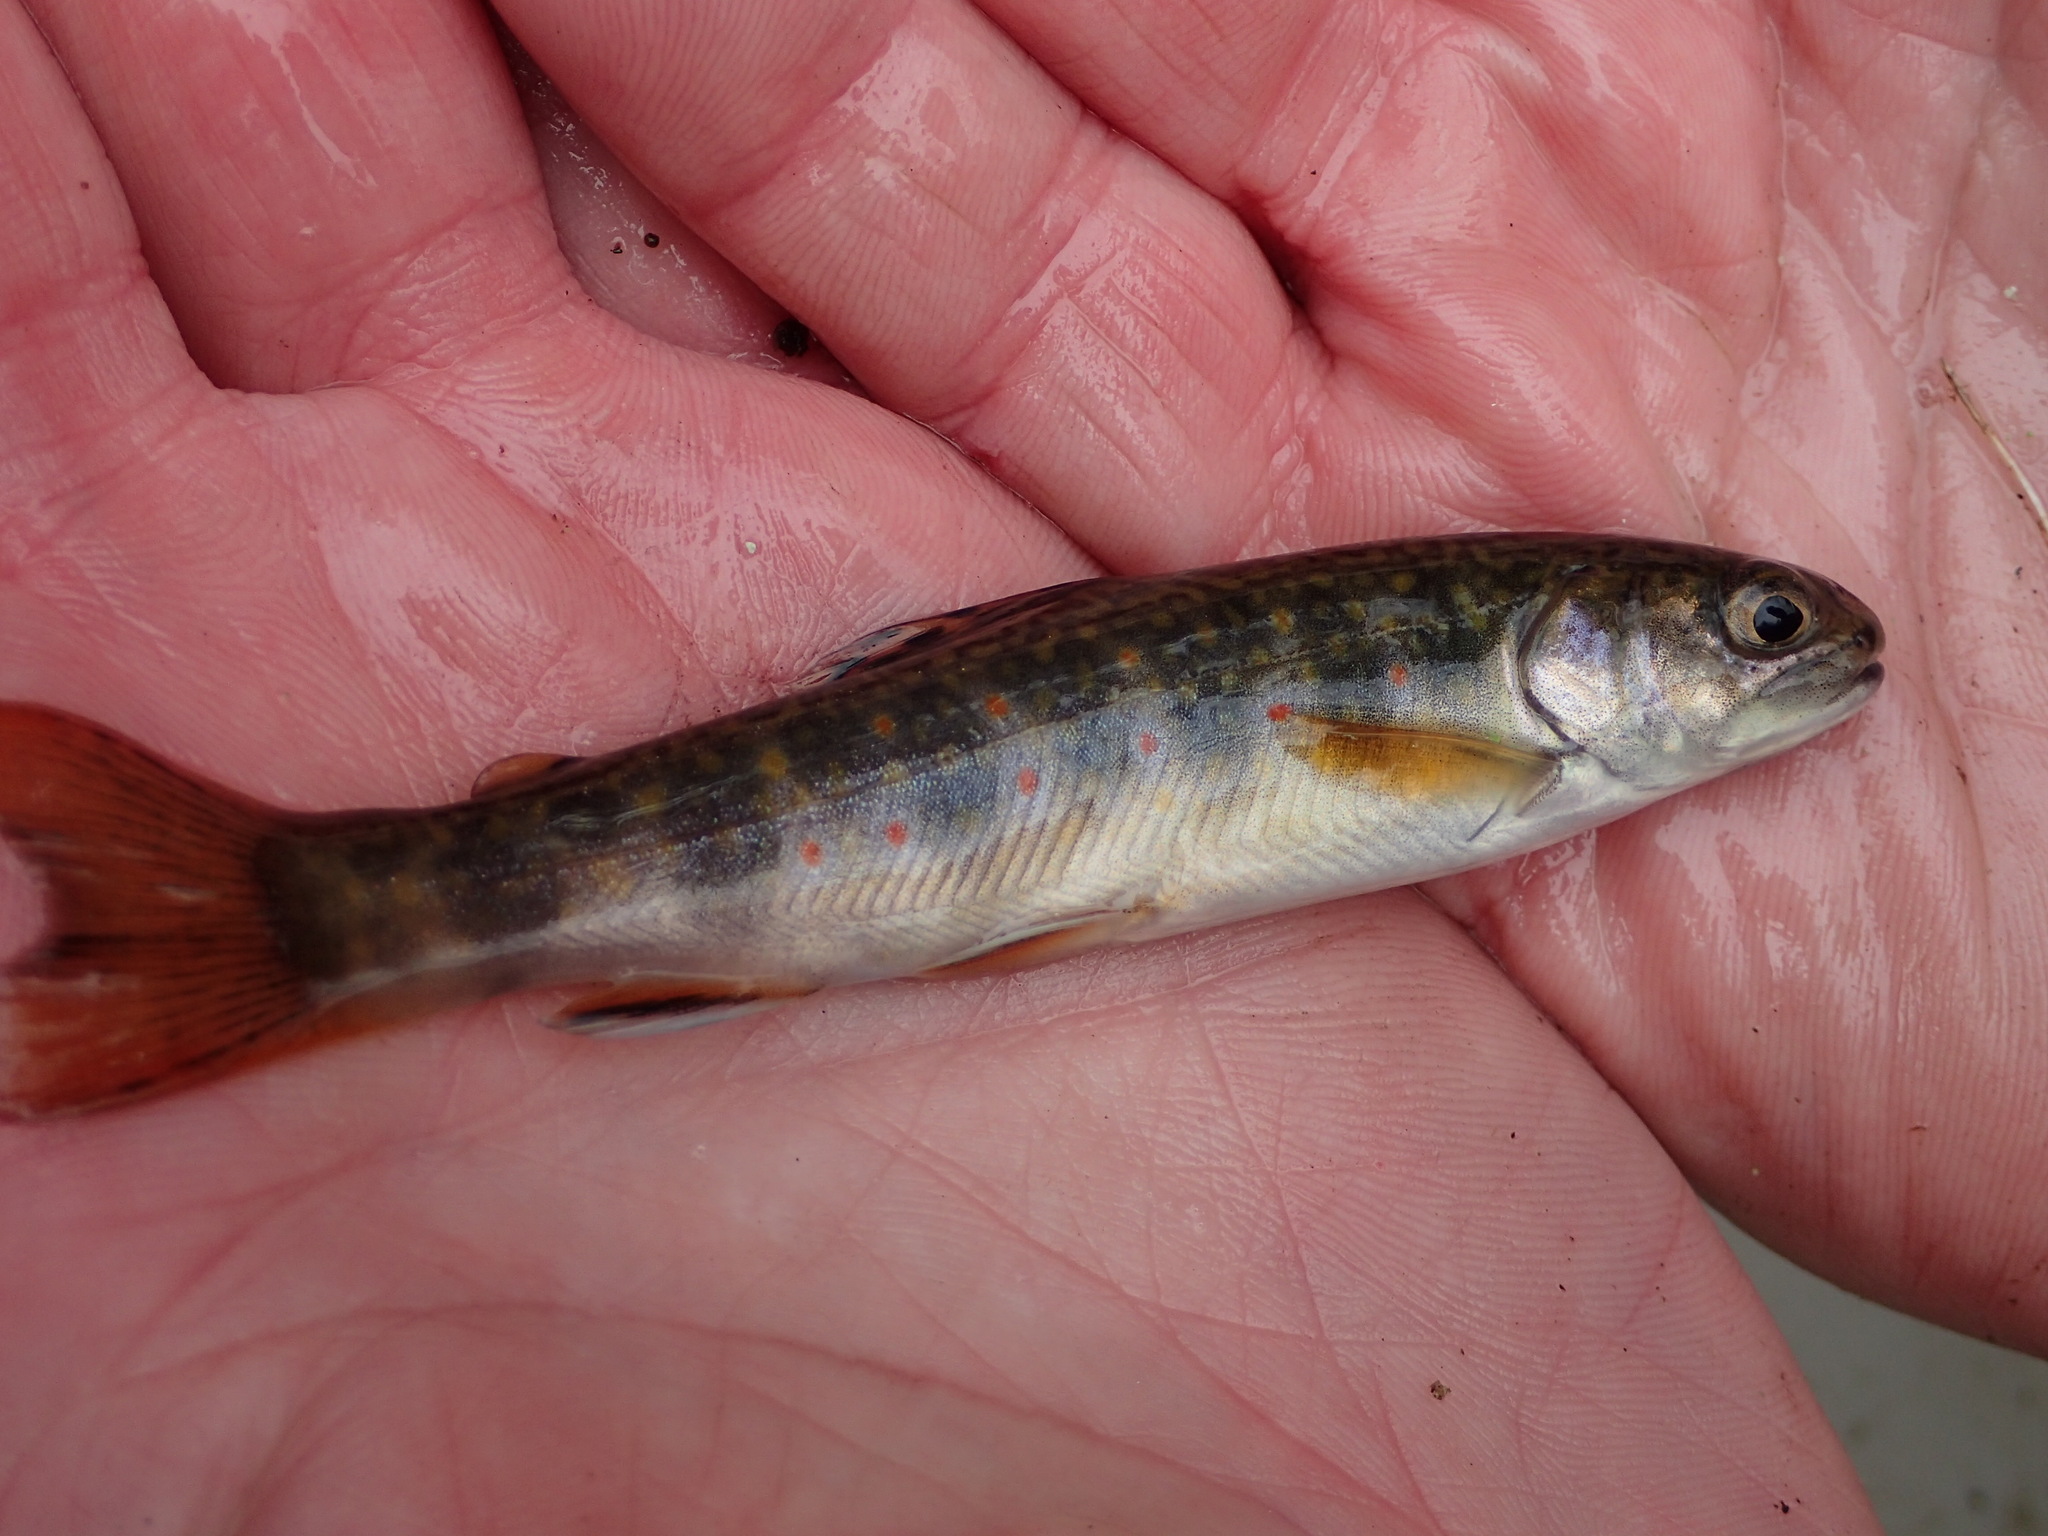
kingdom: Animalia
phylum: Chordata
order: Salmoniformes
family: Salmonidae
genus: Salvelinus
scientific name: Salvelinus fontinalis
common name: Brook trout
